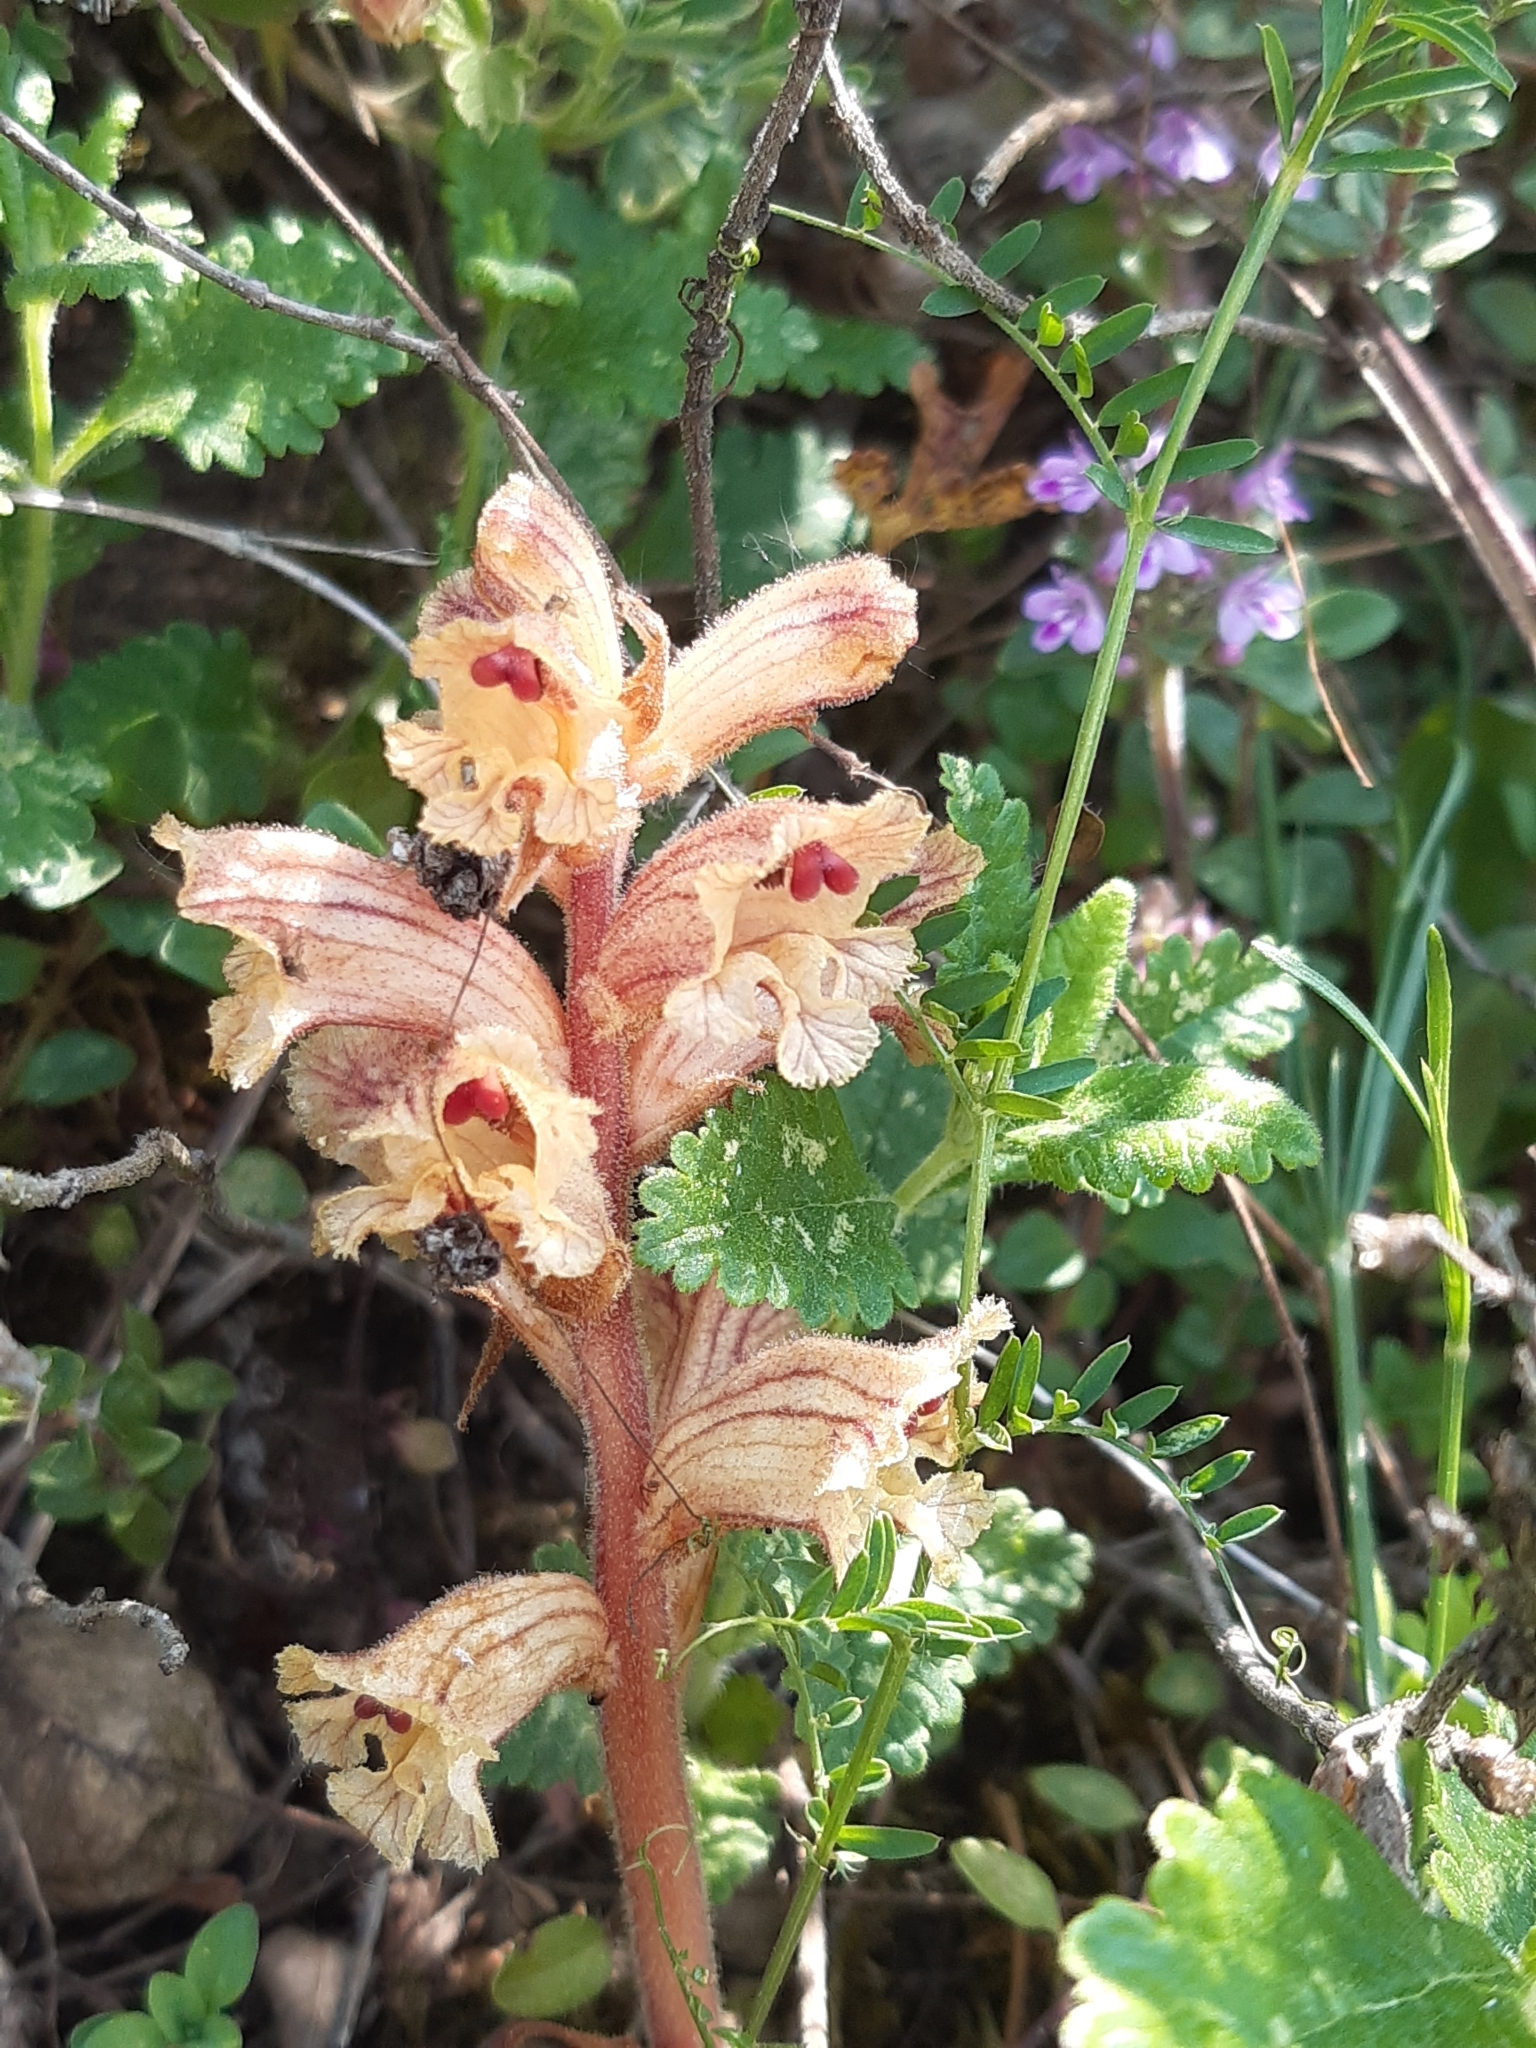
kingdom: Plantae
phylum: Tracheophyta
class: Magnoliopsida
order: Lamiales
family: Orobanchaceae
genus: Orobanche
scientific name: Orobanche alba
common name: Thyme broomrape
